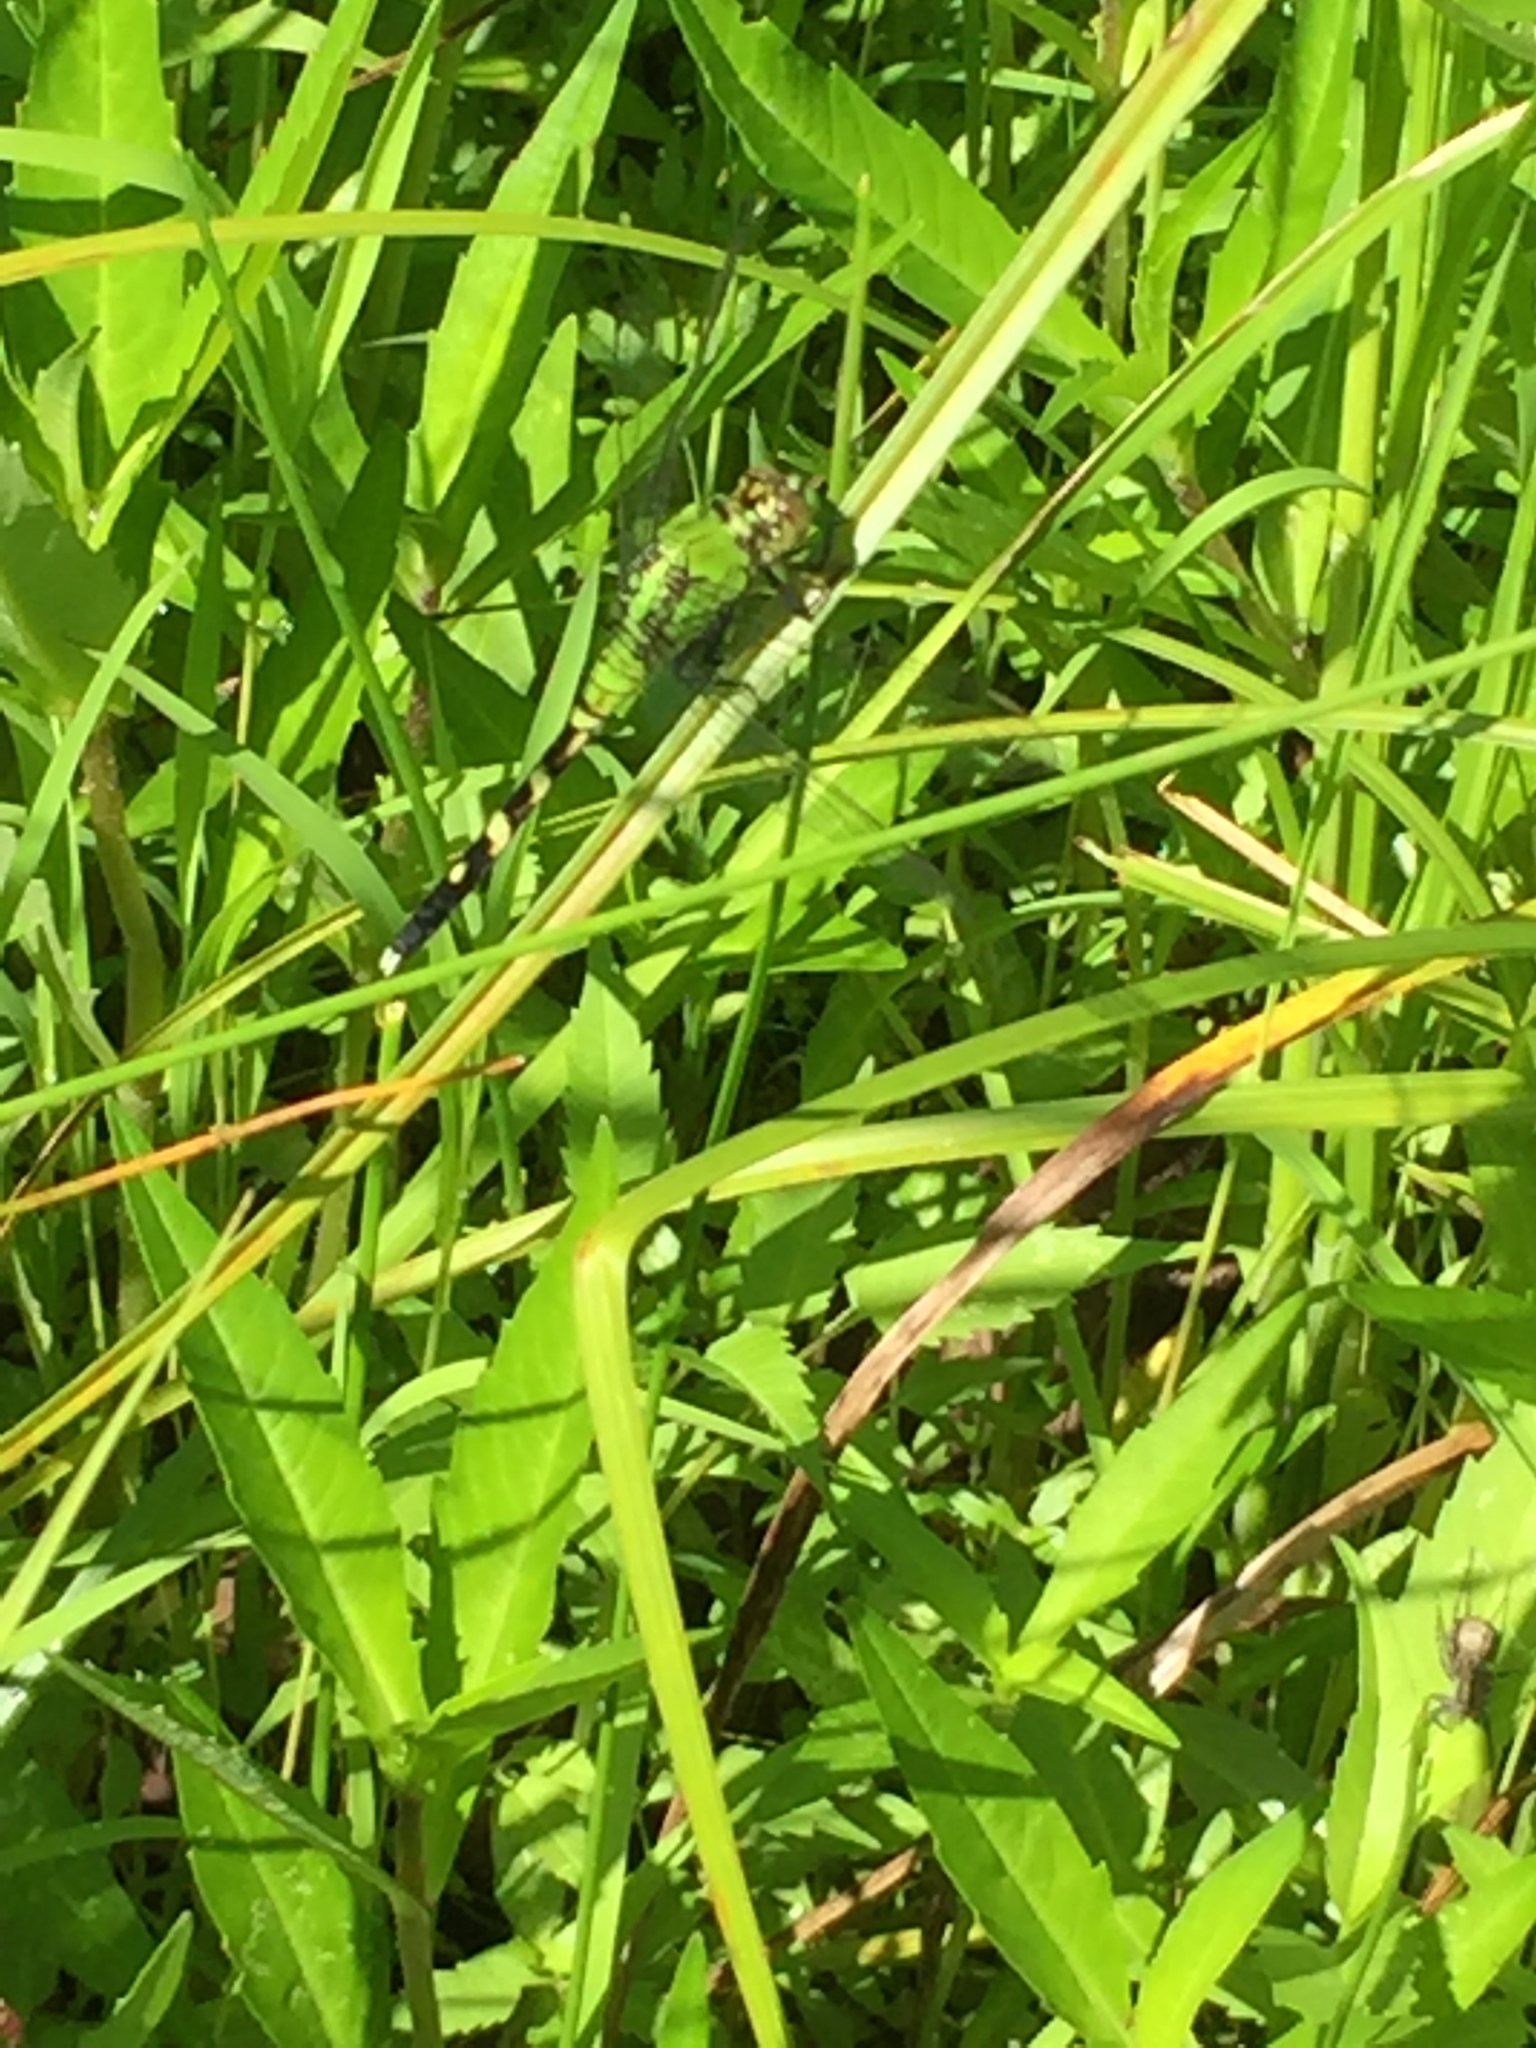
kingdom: Animalia
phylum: Arthropoda
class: Insecta
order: Odonata
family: Libellulidae
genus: Erythemis
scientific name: Erythemis simplicicollis
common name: Eastern pondhawk
